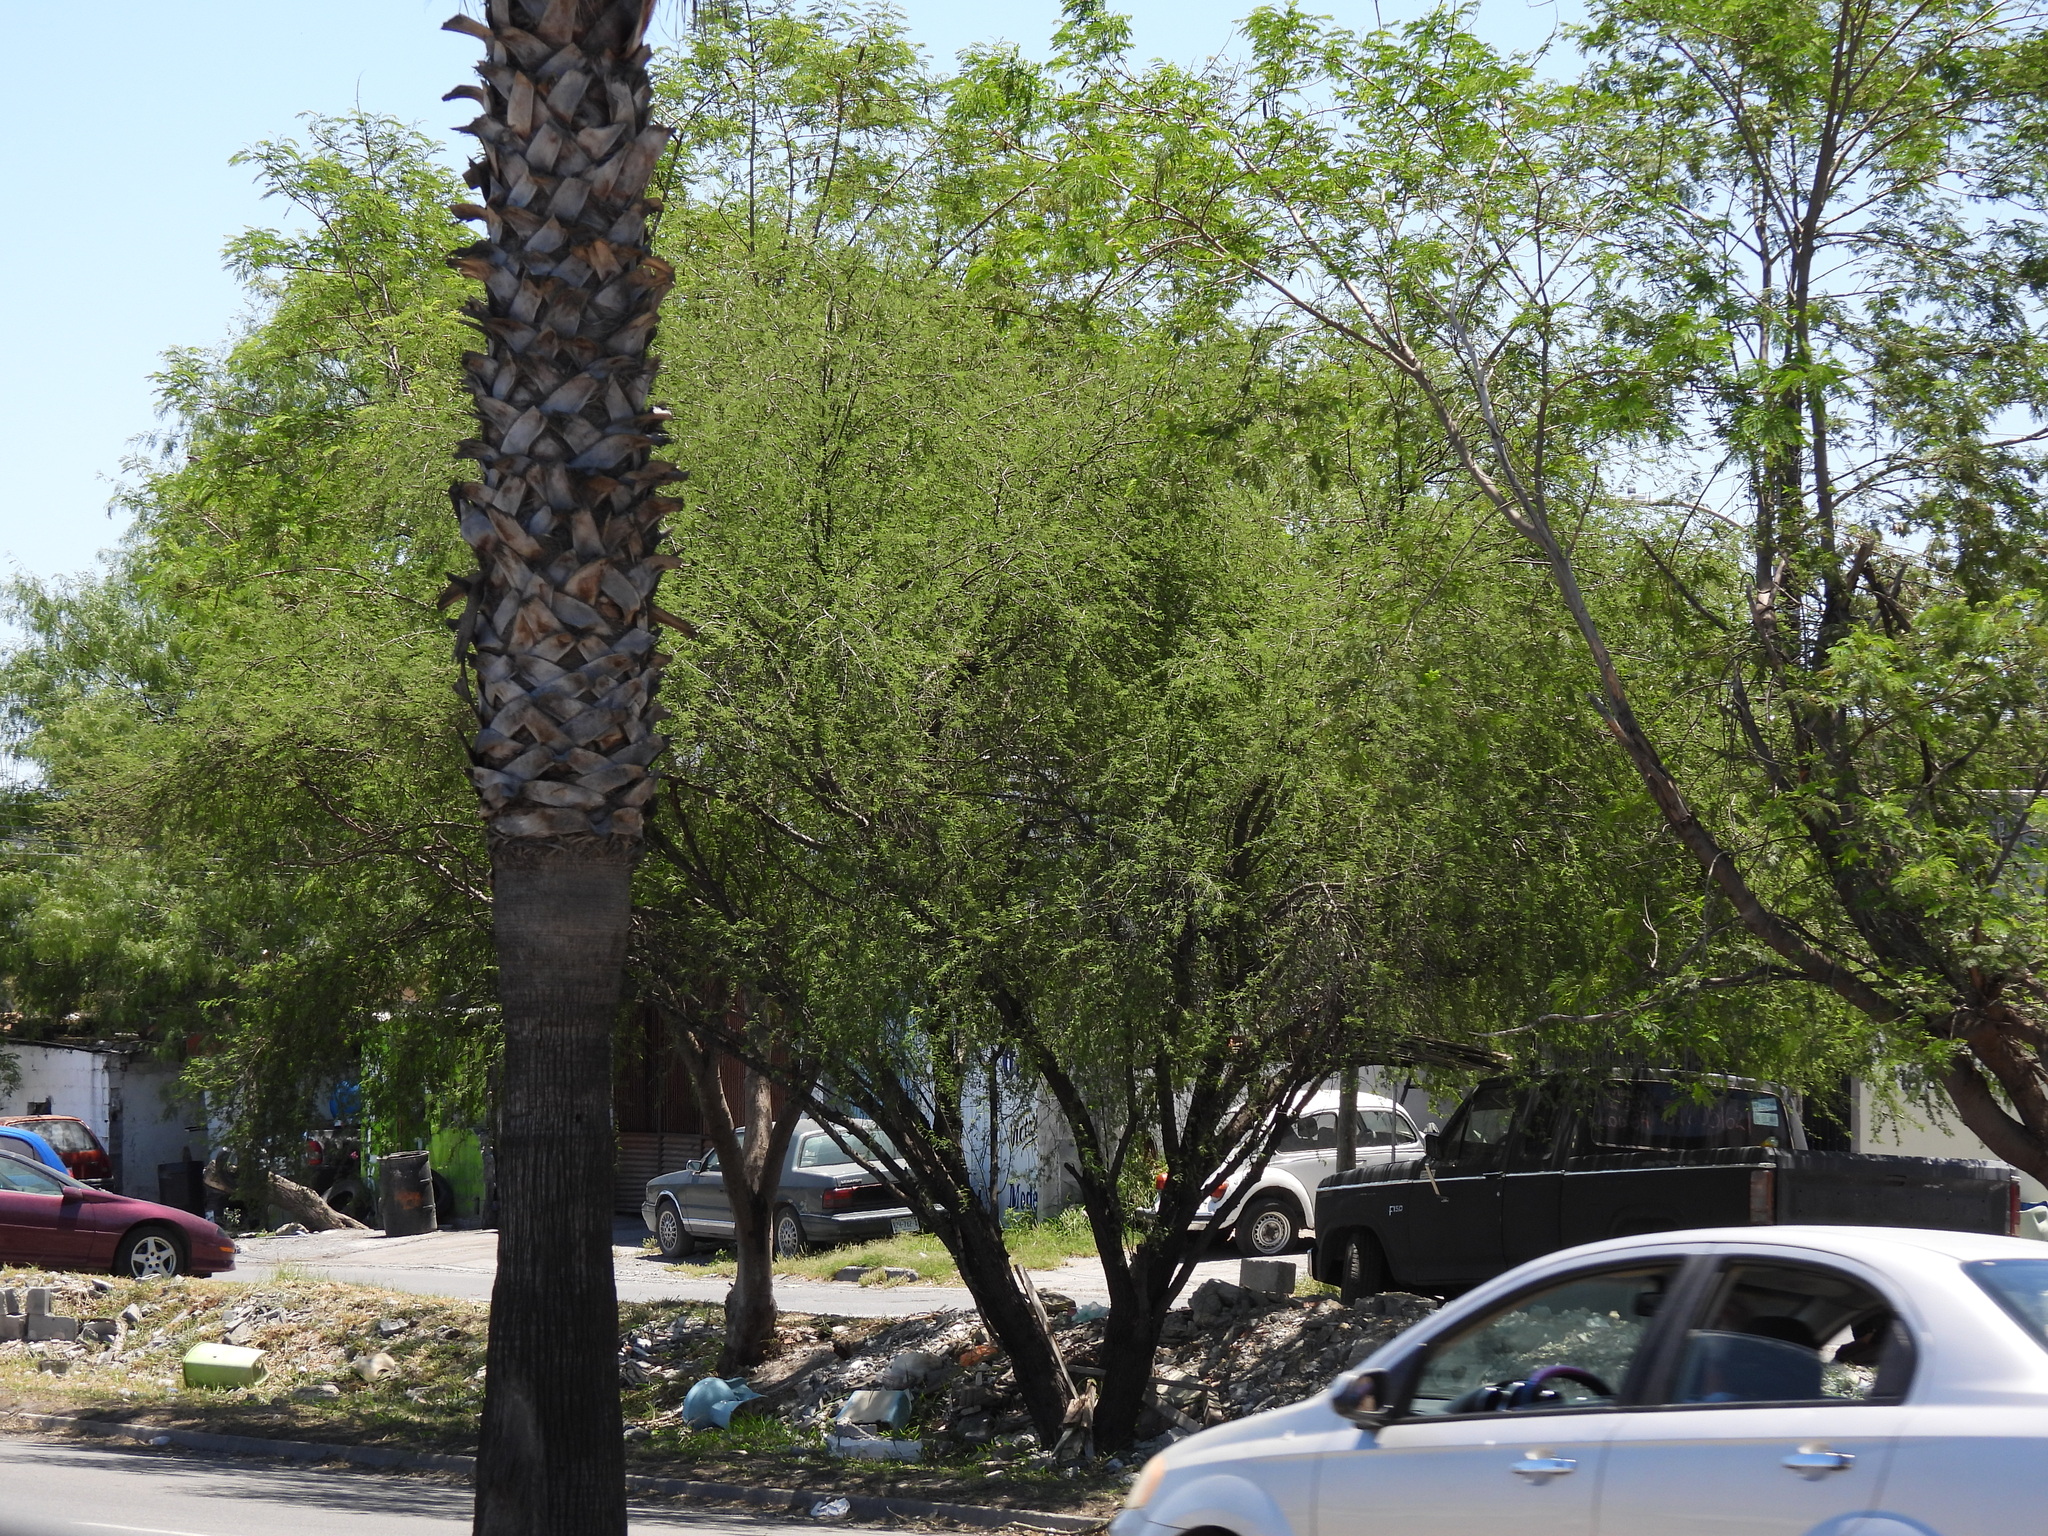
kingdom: Plantae
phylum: Tracheophyta
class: Magnoliopsida
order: Fabales
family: Fabaceae
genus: Parkinsonia
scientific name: Parkinsonia aculeata
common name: Jerusalem thorn
